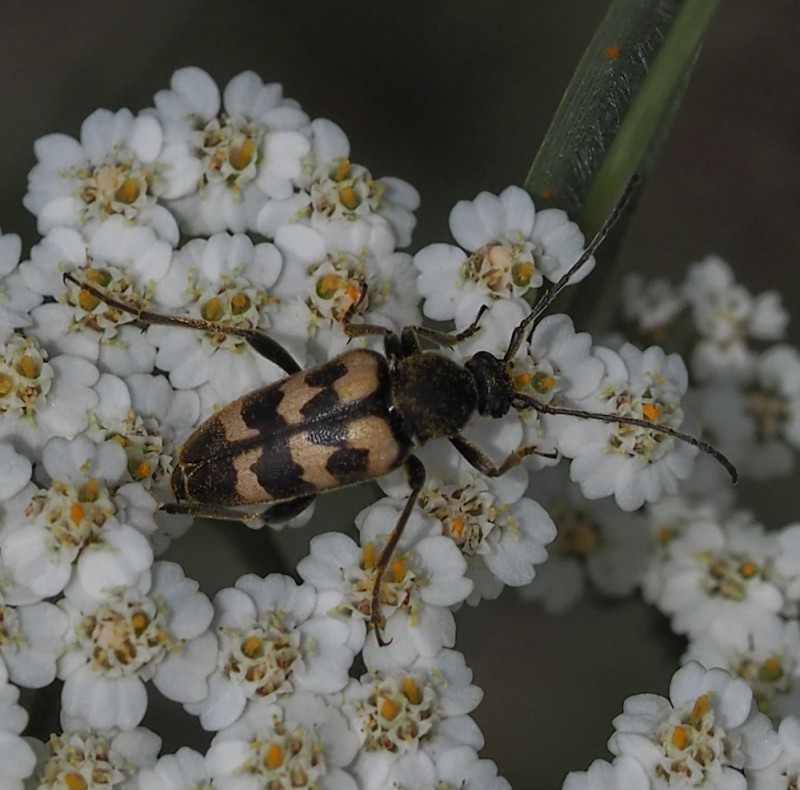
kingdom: Animalia
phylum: Arthropoda
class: Insecta
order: Coleoptera
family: Cerambycidae
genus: Pachytodes
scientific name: Pachytodes
